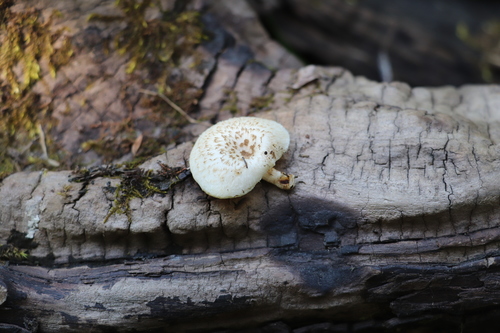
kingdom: Fungi
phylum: Basidiomycota
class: Agaricomycetes
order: Polyporales
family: Polyporaceae
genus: Lentinus
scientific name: Lentinus tigrinus
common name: Tiger sawgill
